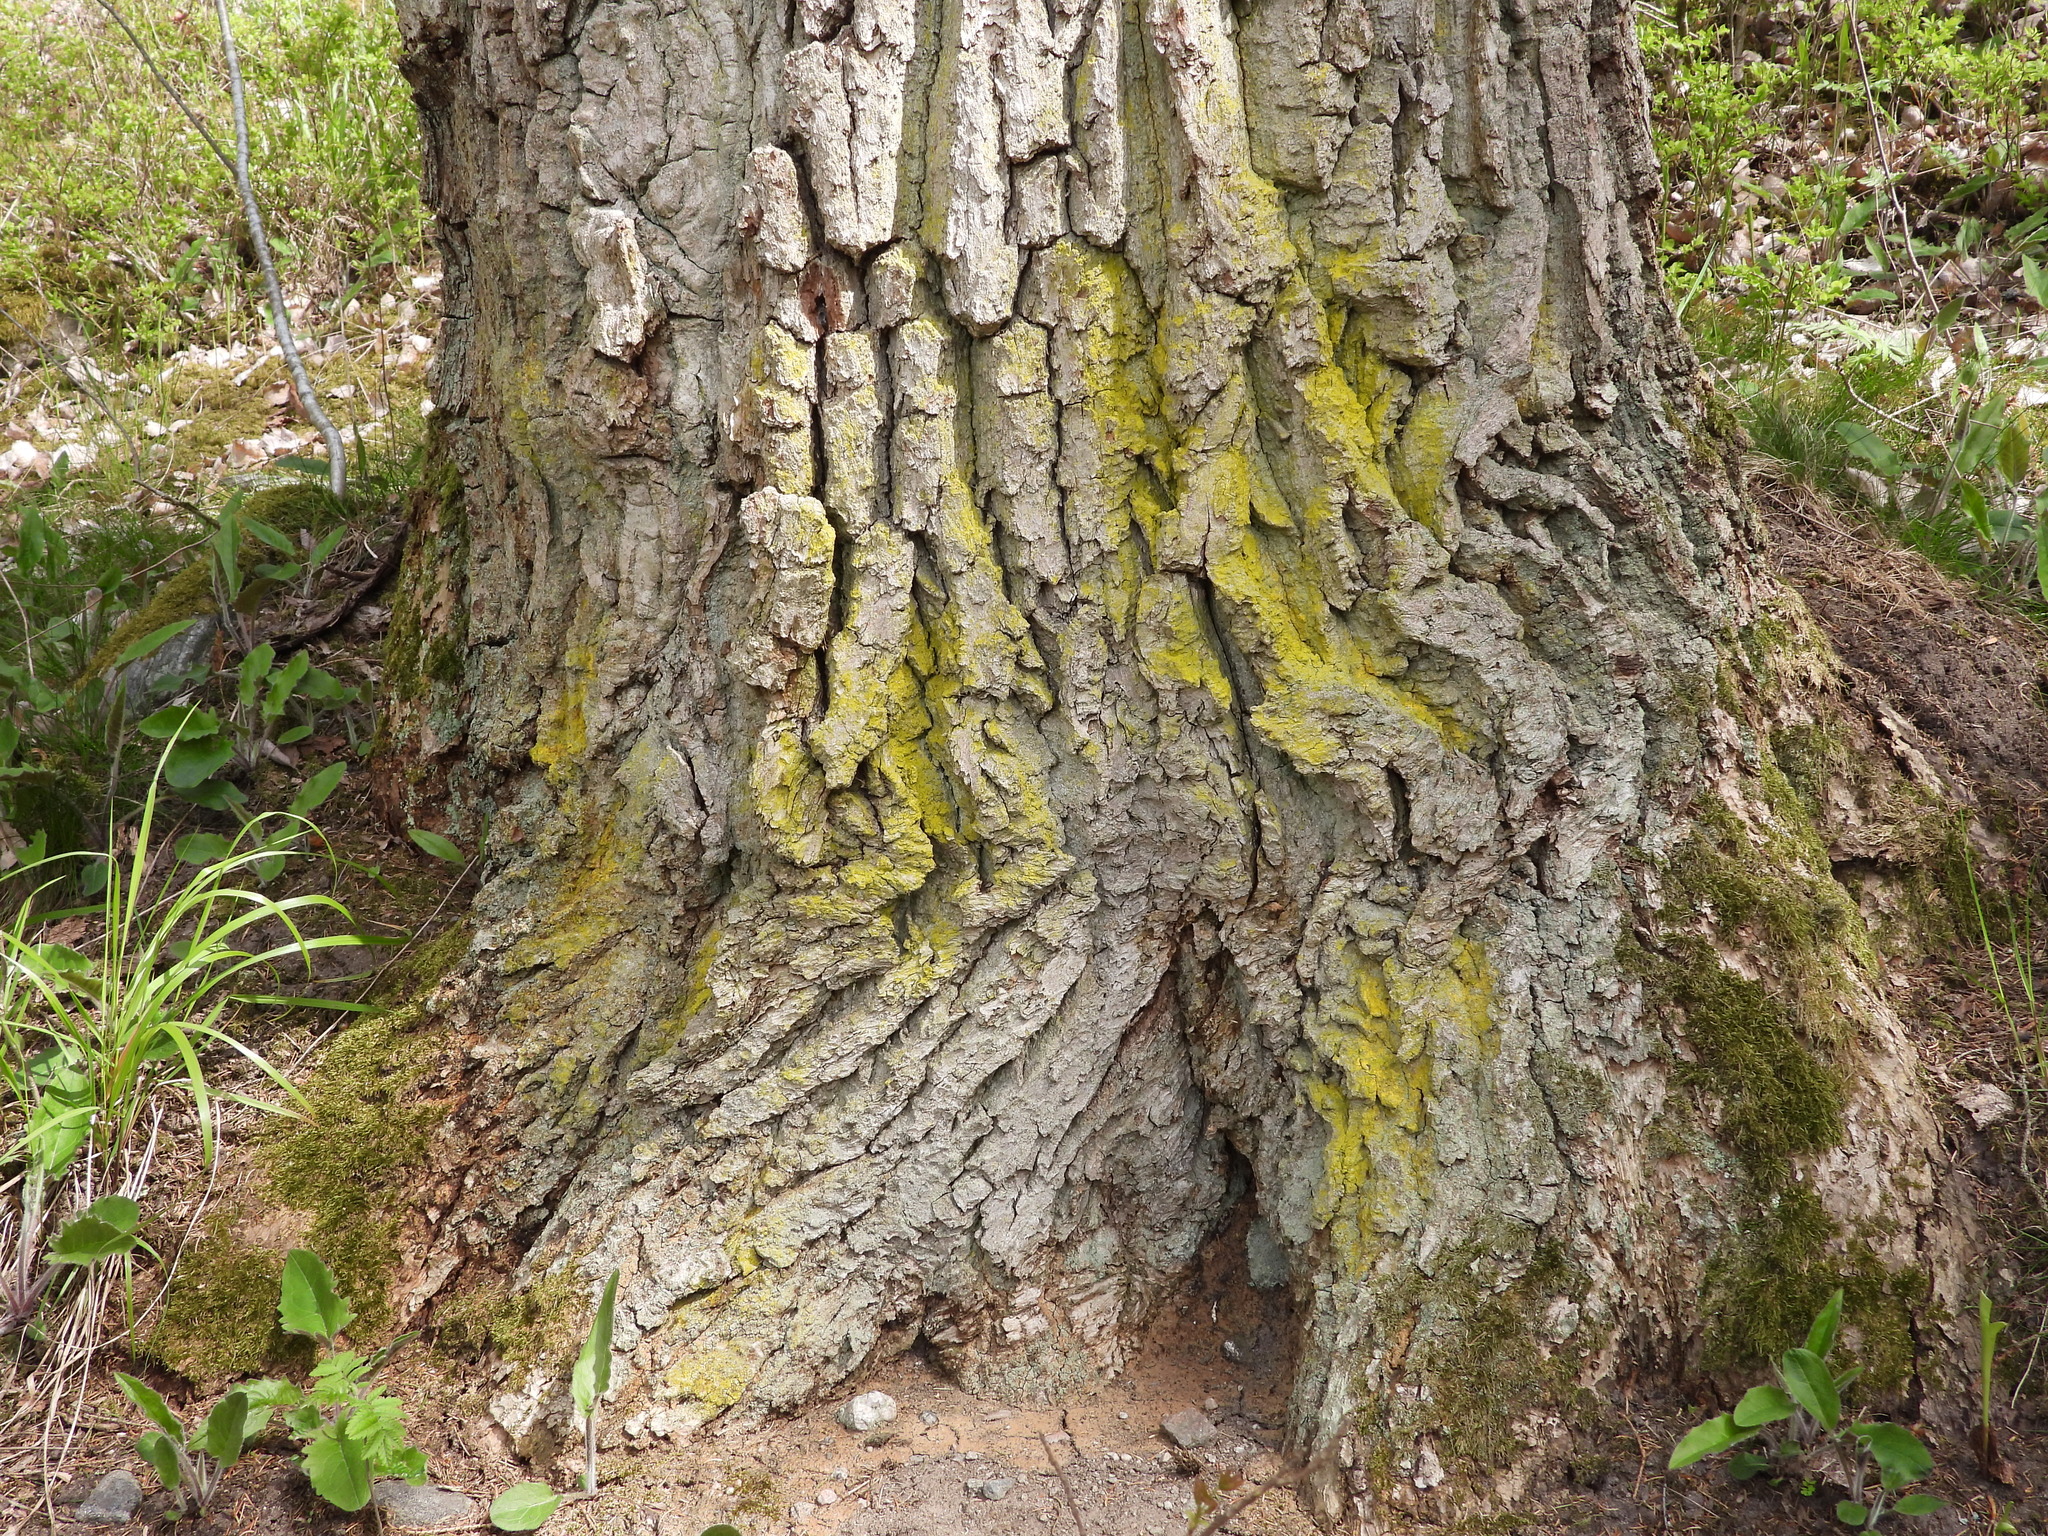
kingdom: Fungi
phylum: Ascomycota
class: Arthoniomycetes
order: Arthoniales
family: Chrysotrichaceae
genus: Chrysothrix
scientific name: Chrysothrix candelaris
